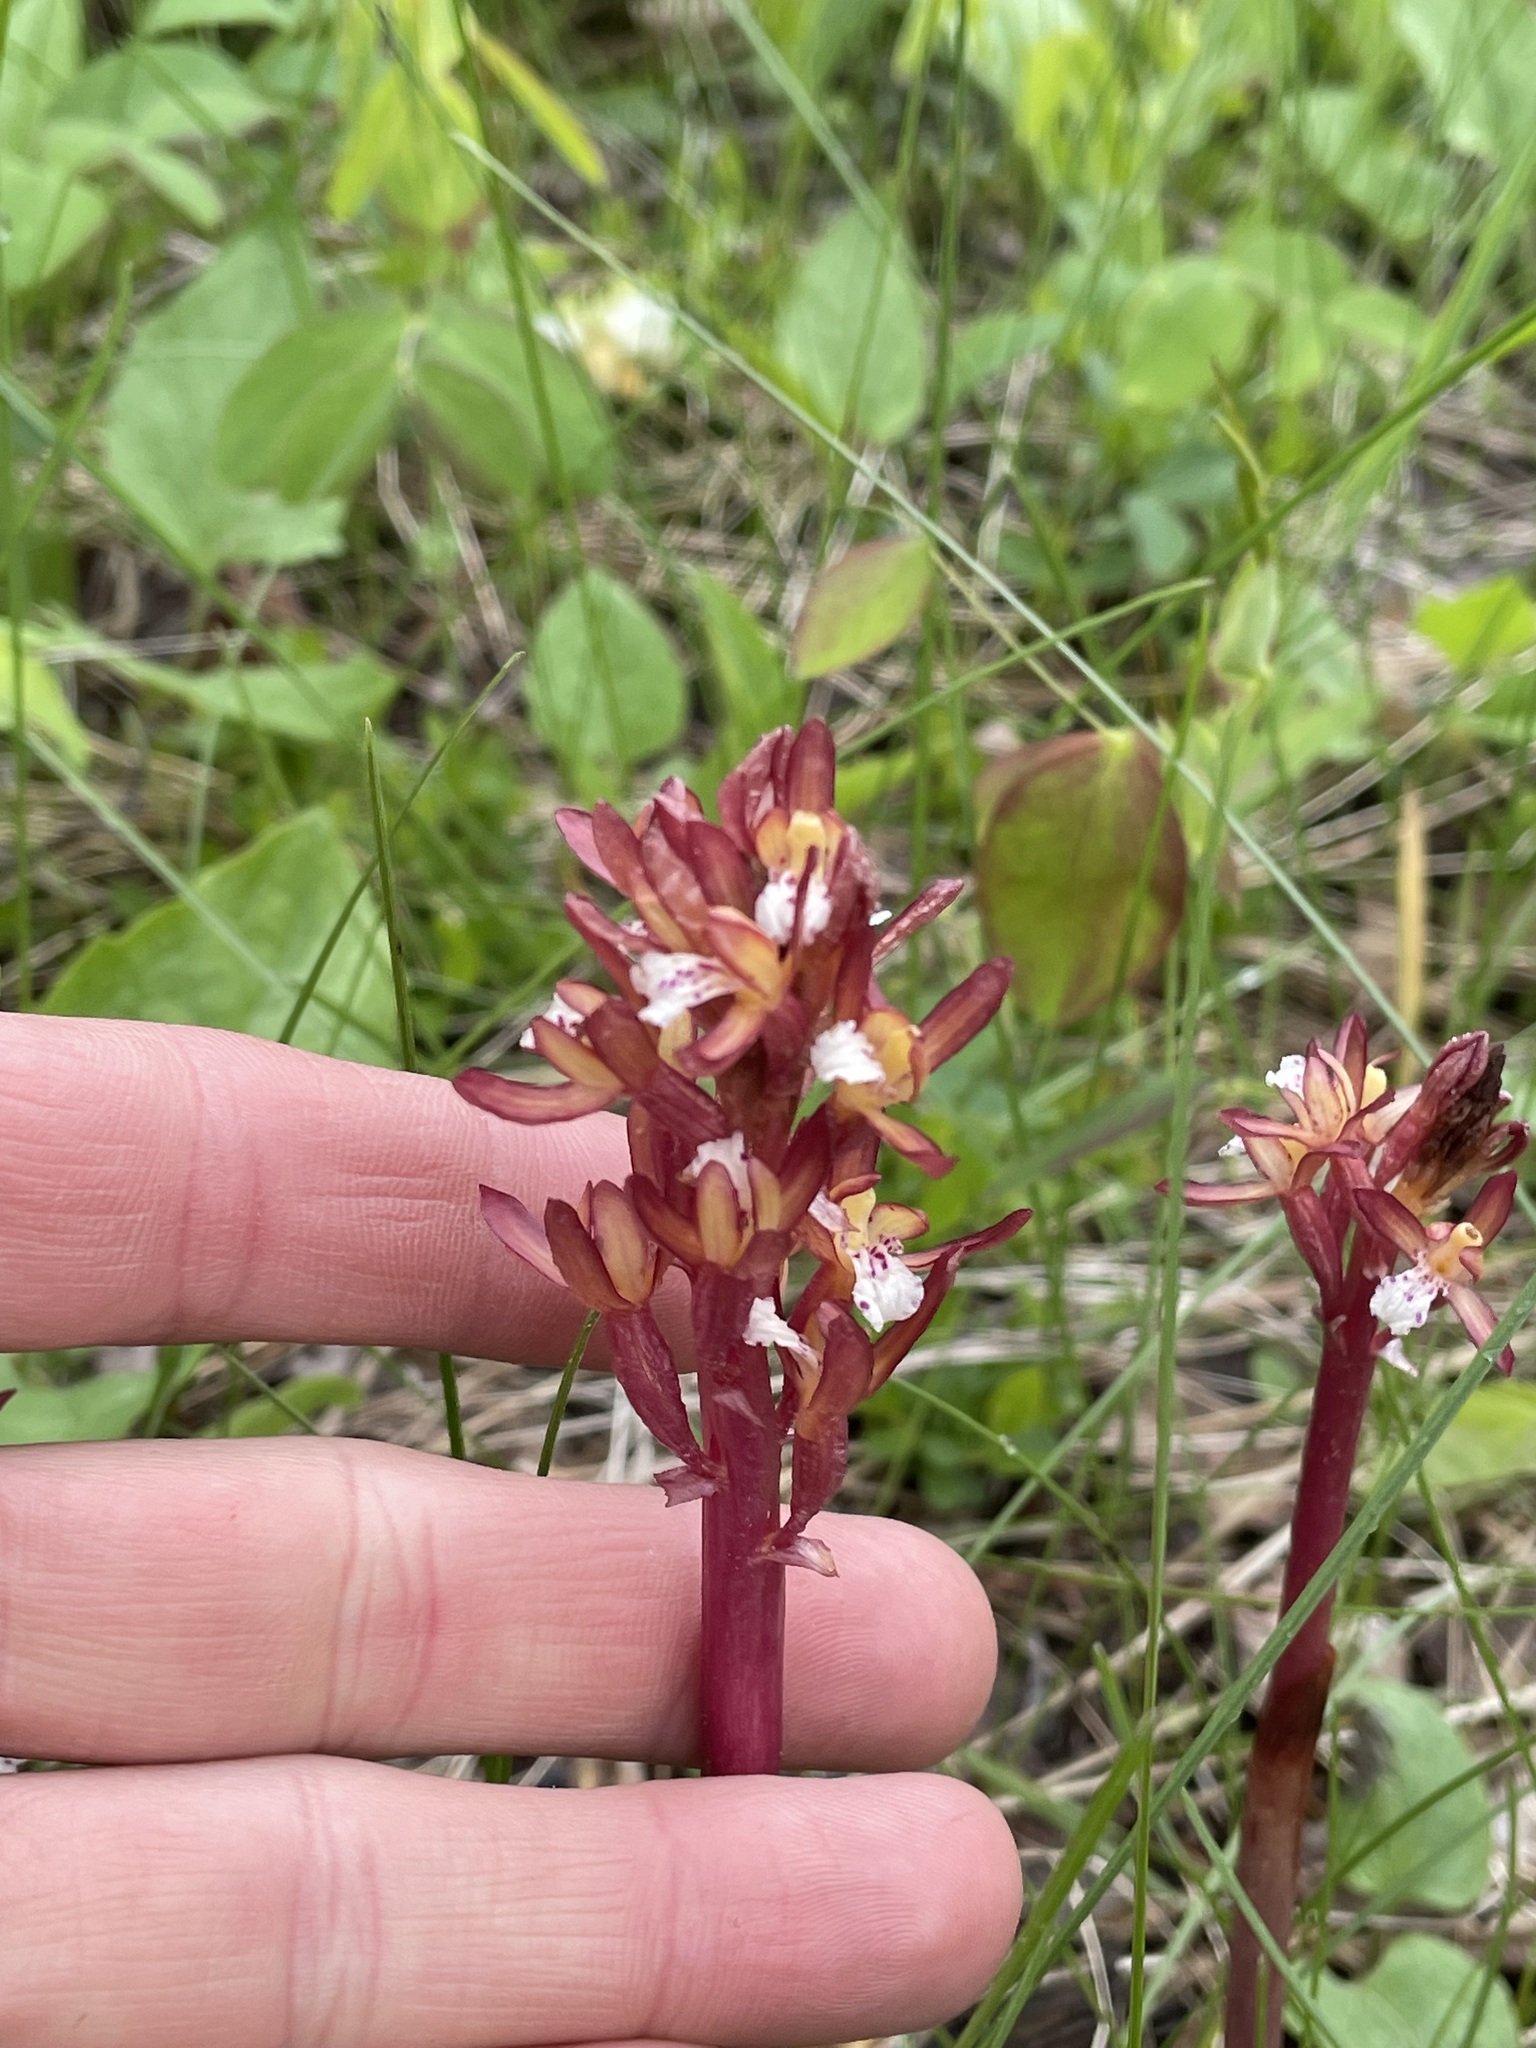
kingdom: Plantae
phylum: Tracheophyta
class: Liliopsida
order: Asparagales
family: Orchidaceae
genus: Corallorhiza
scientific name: Corallorhiza maculata
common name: Spotted coralroot
